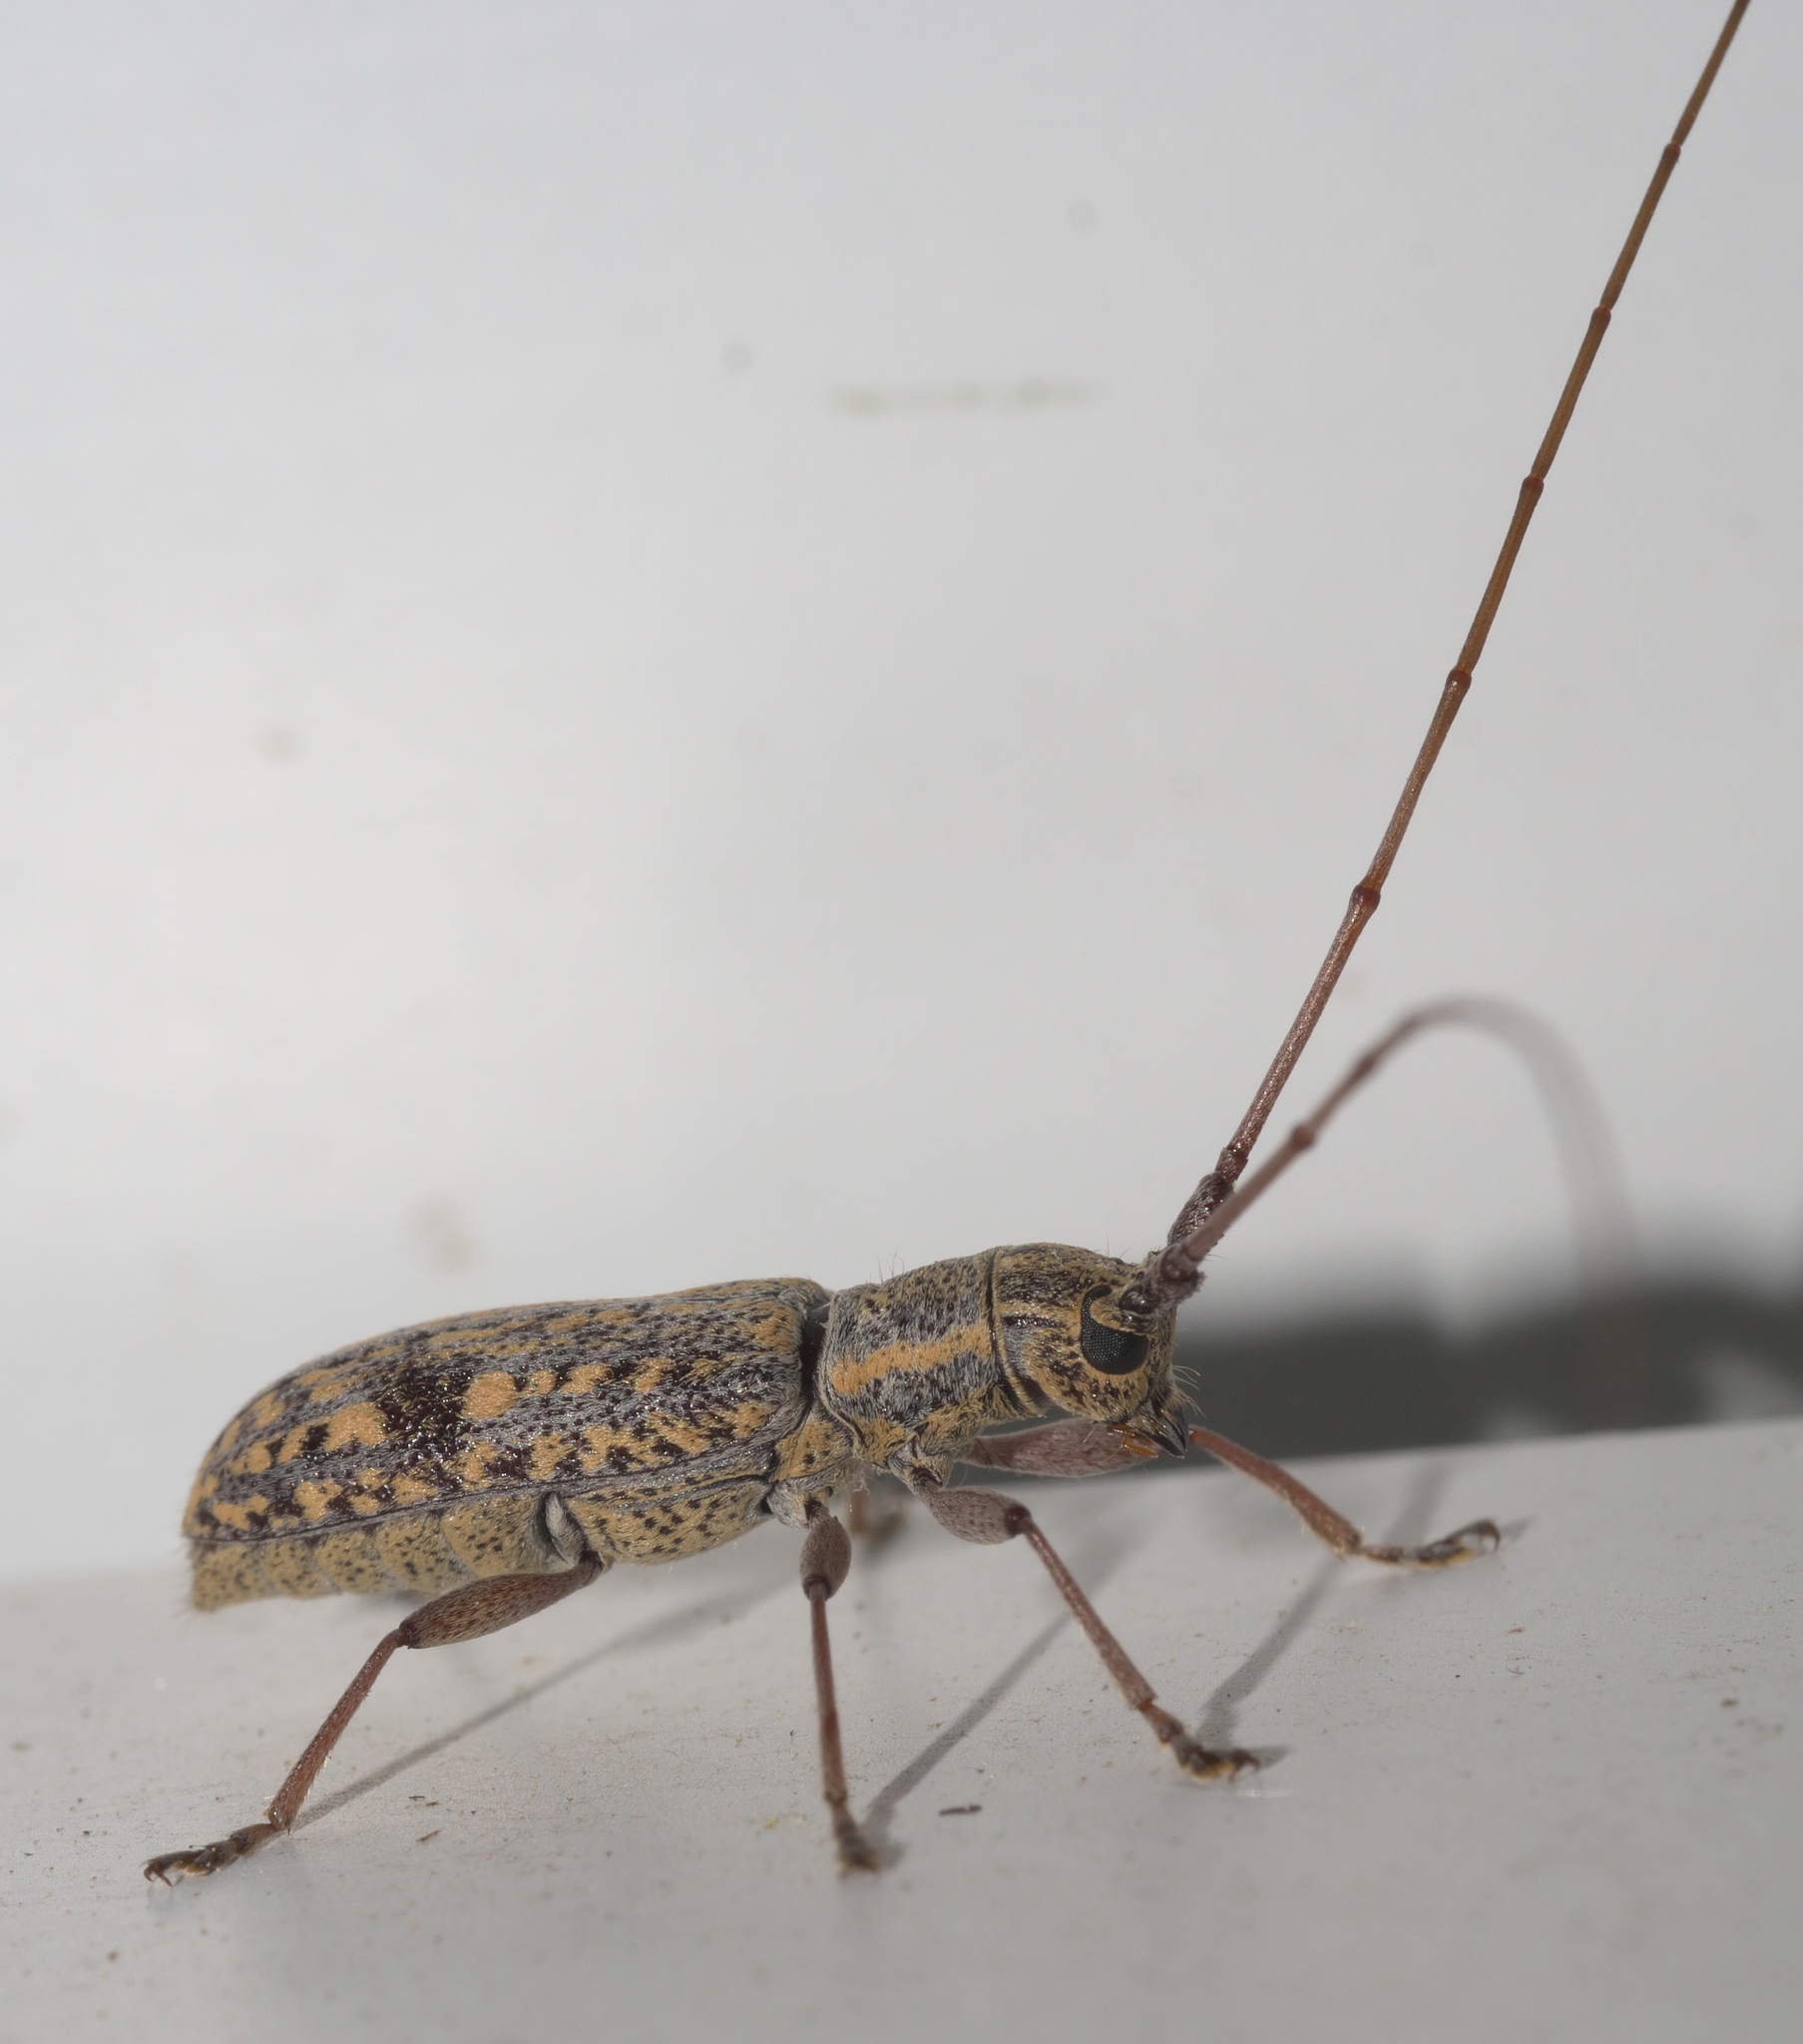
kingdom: Animalia
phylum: Arthropoda
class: Insecta
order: Coleoptera
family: Cerambycidae
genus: Dorcaschema
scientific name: Dorcaschema alternatum
